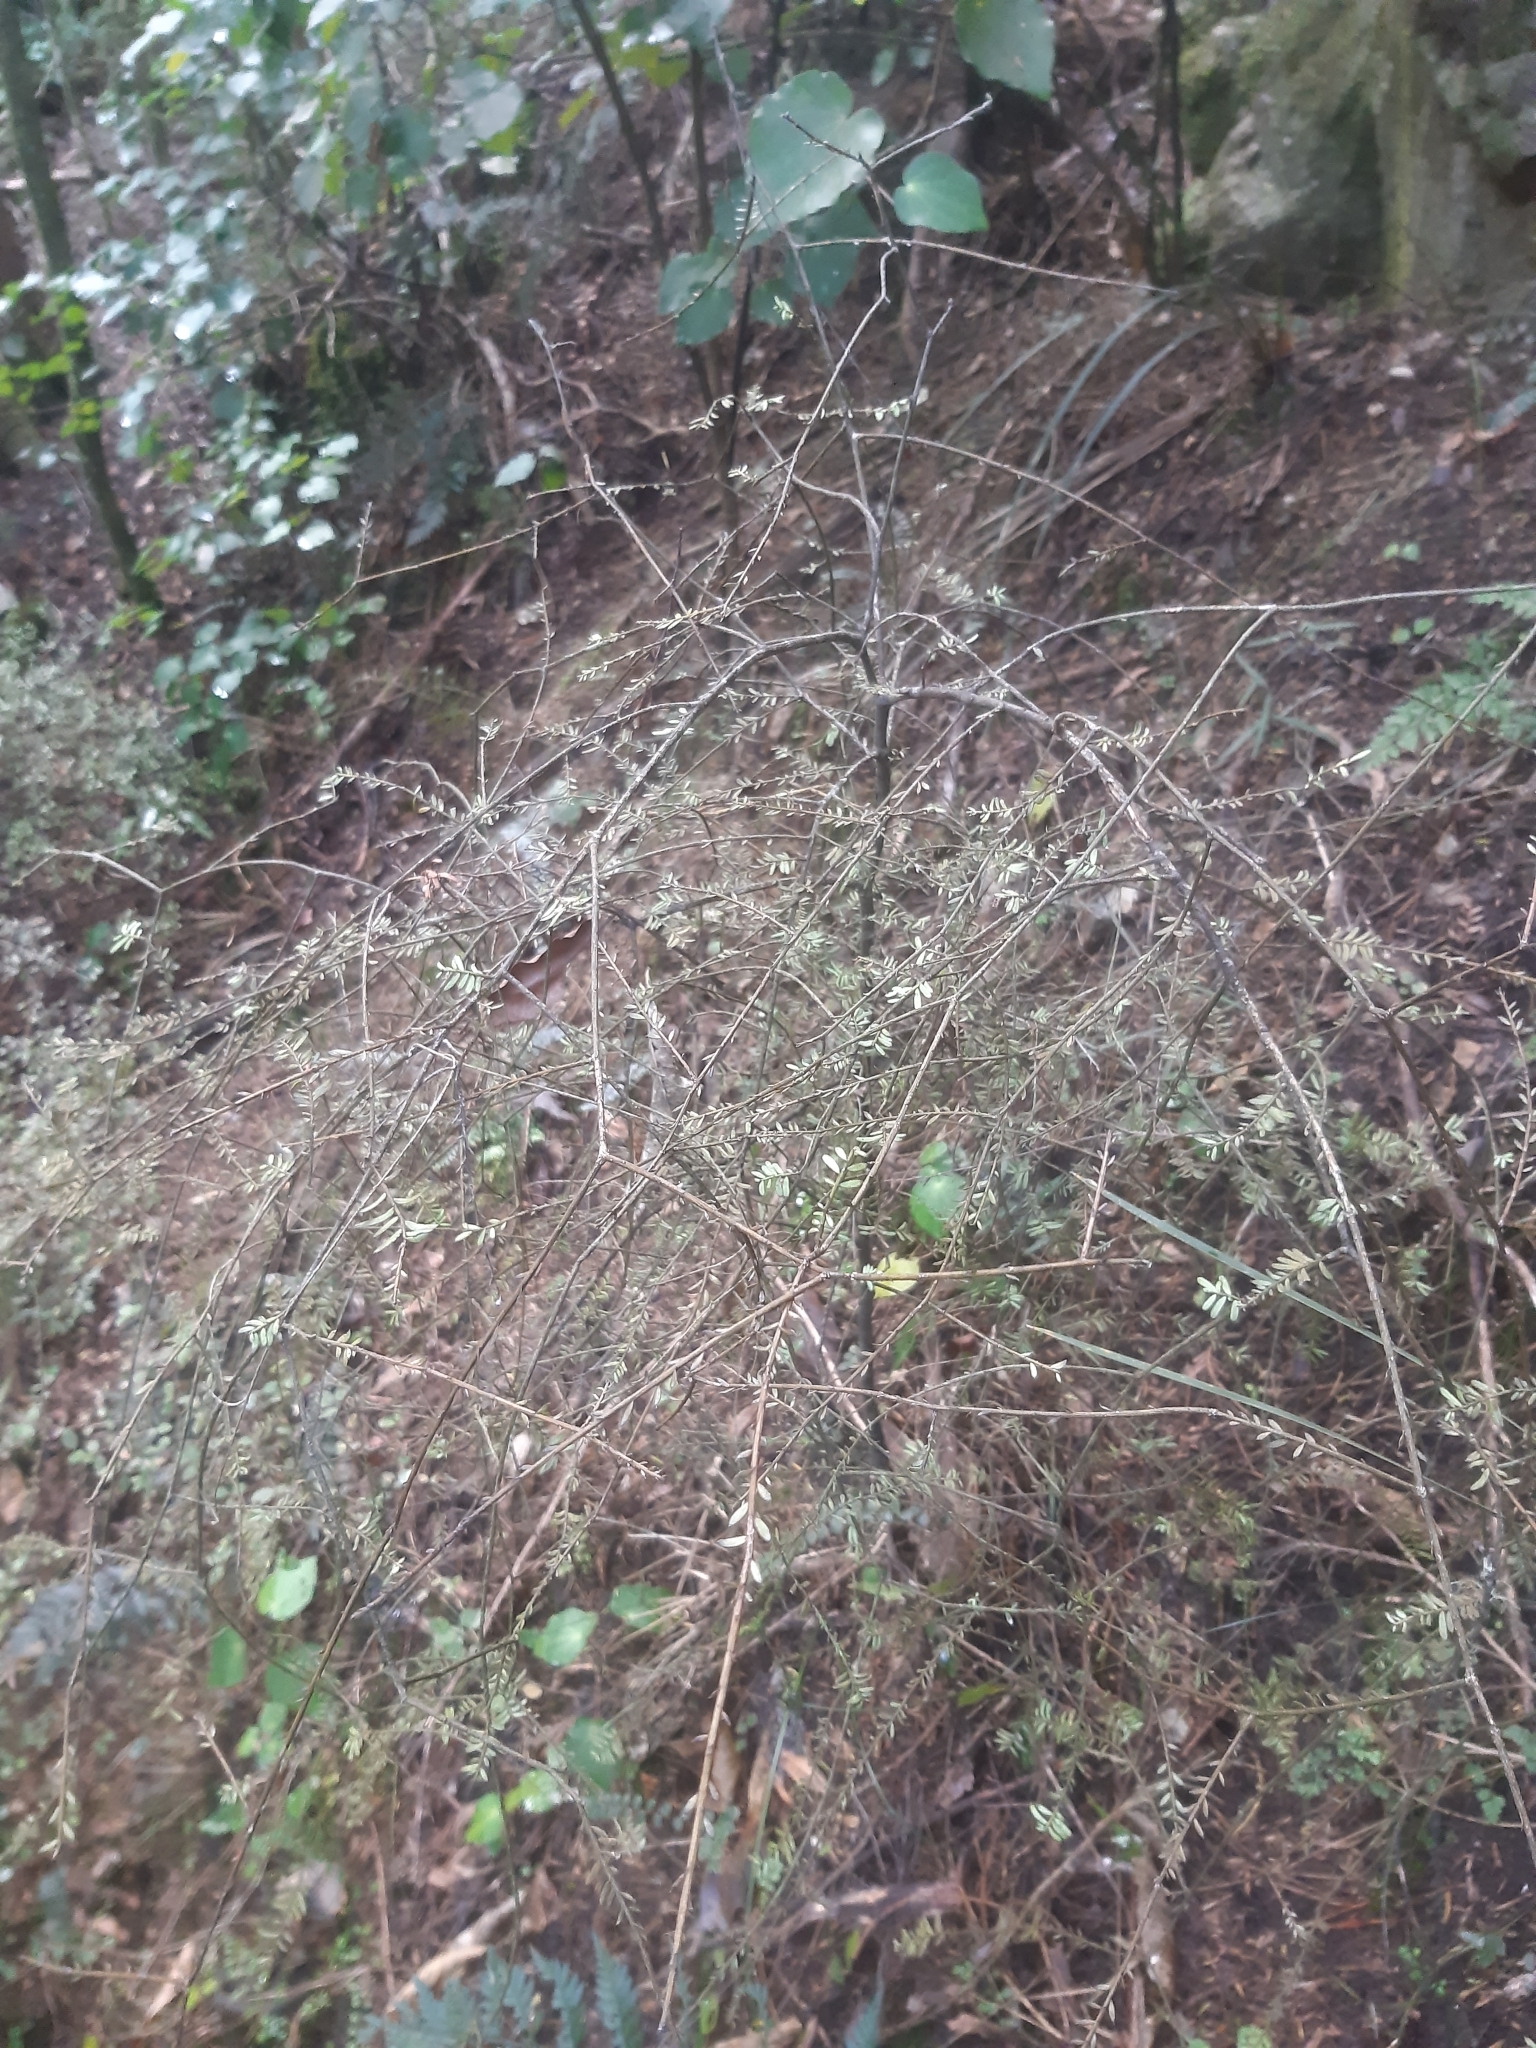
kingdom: Plantae
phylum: Tracheophyta
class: Pinopsida
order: Pinales
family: Podocarpaceae
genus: Prumnopitys
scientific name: Prumnopitys taxifolia
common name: Matai
